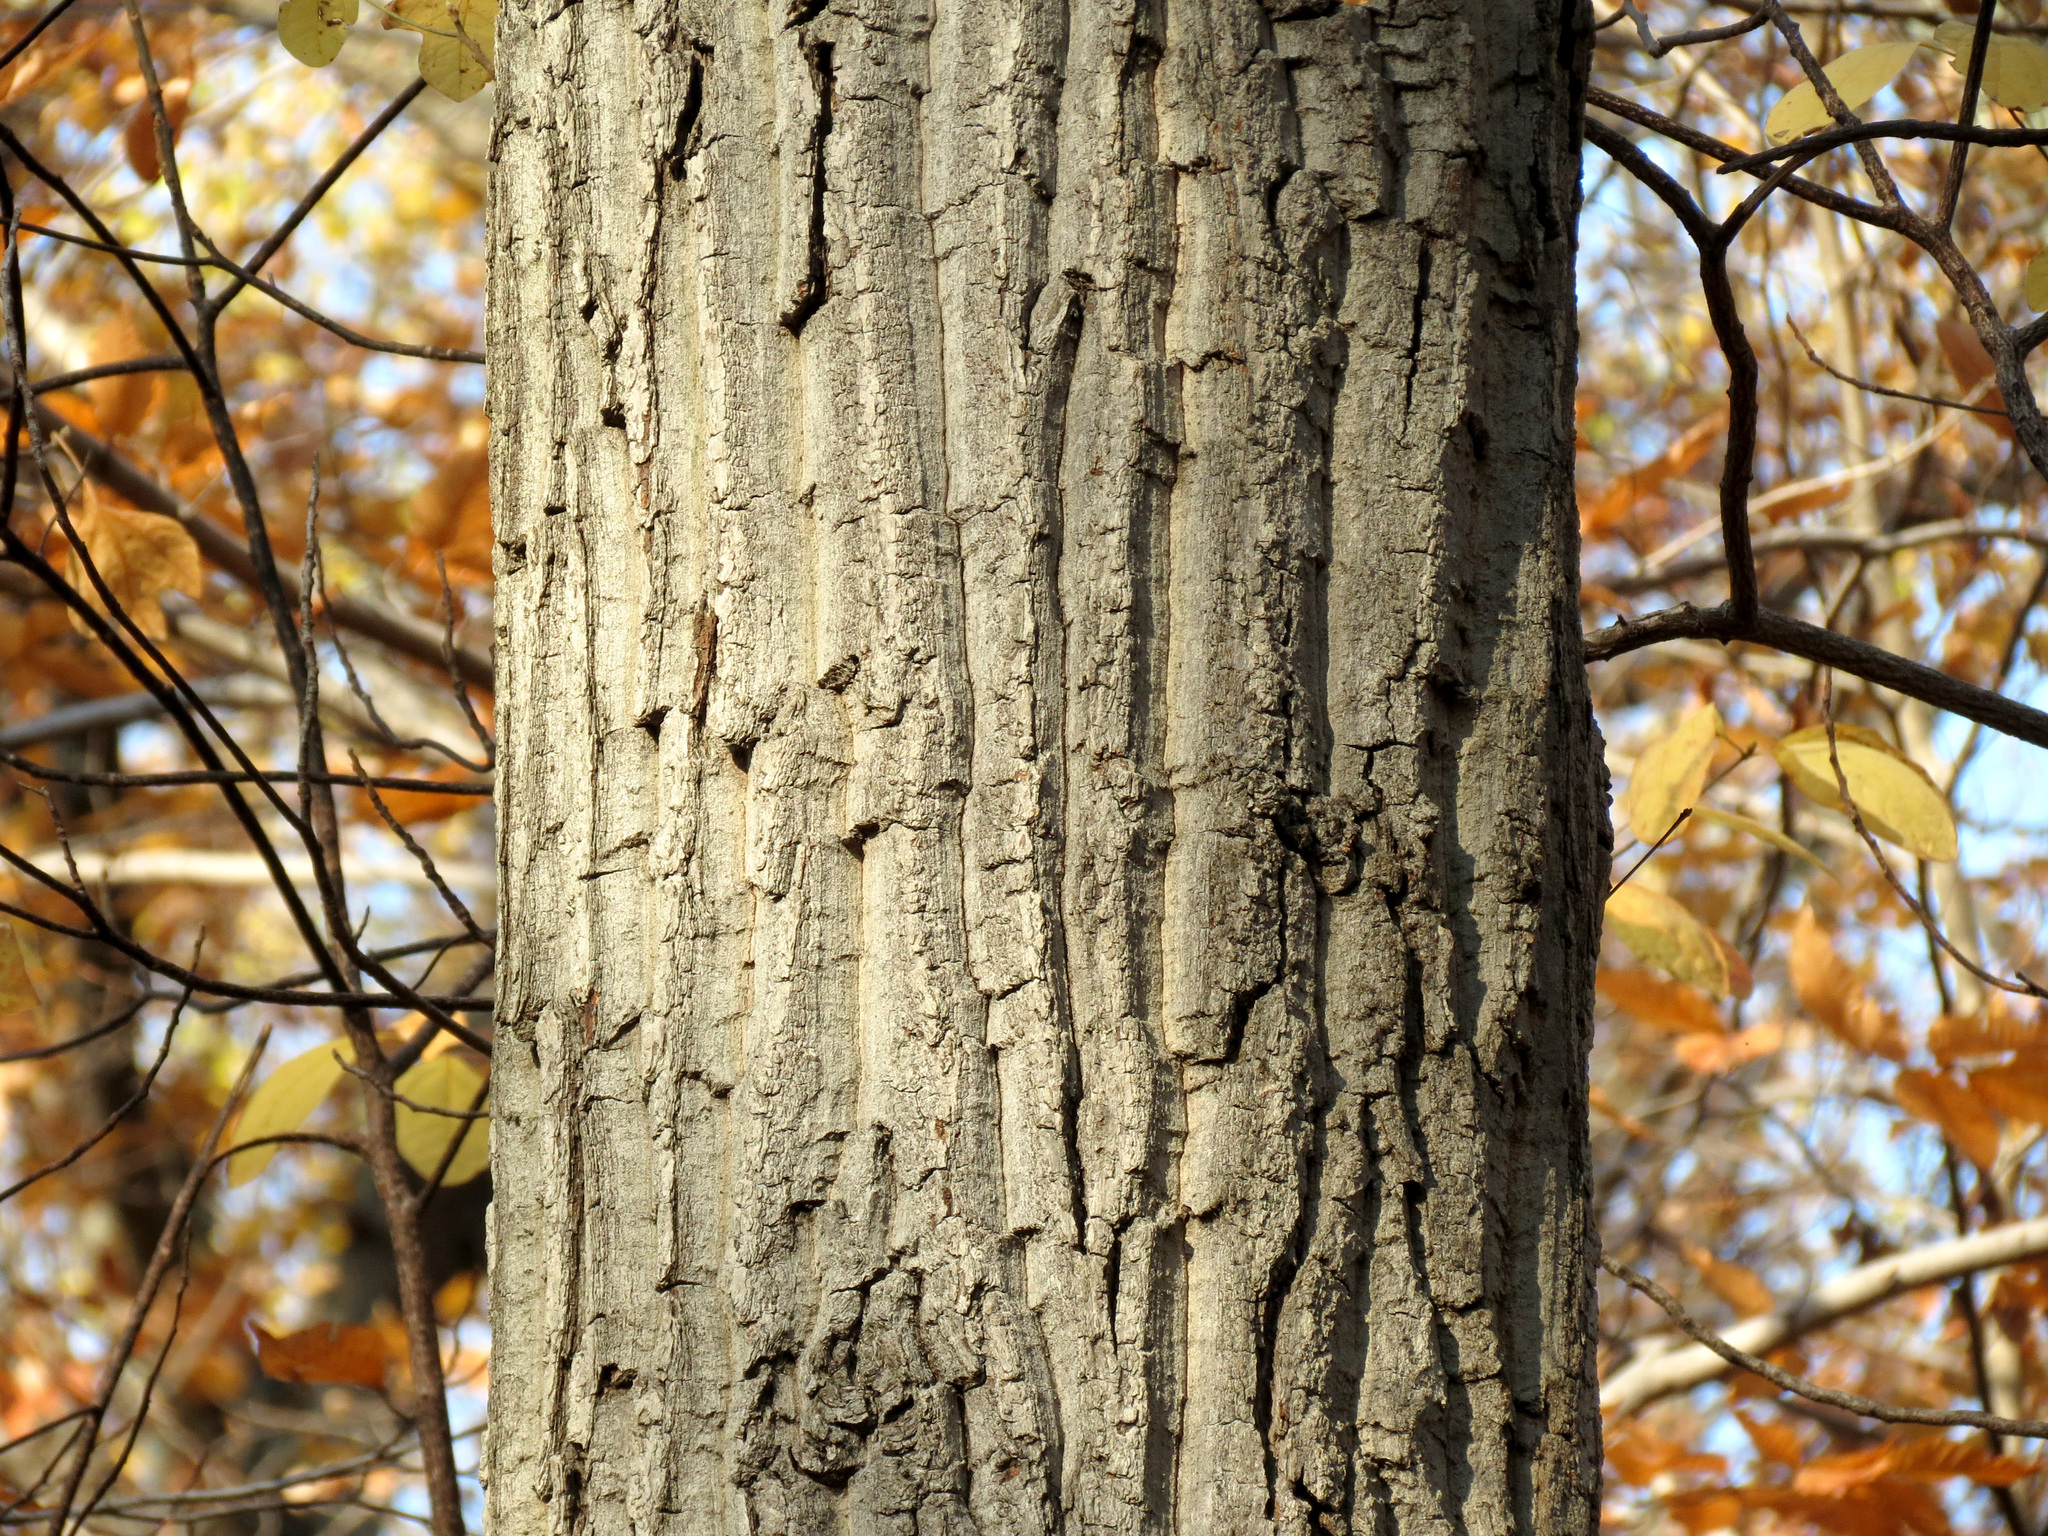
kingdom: Plantae
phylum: Tracheophyta
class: Magnoliopsida
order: Fagales
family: Fagaceae
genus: Quercus
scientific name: Quercus montana
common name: Chestnut oak
